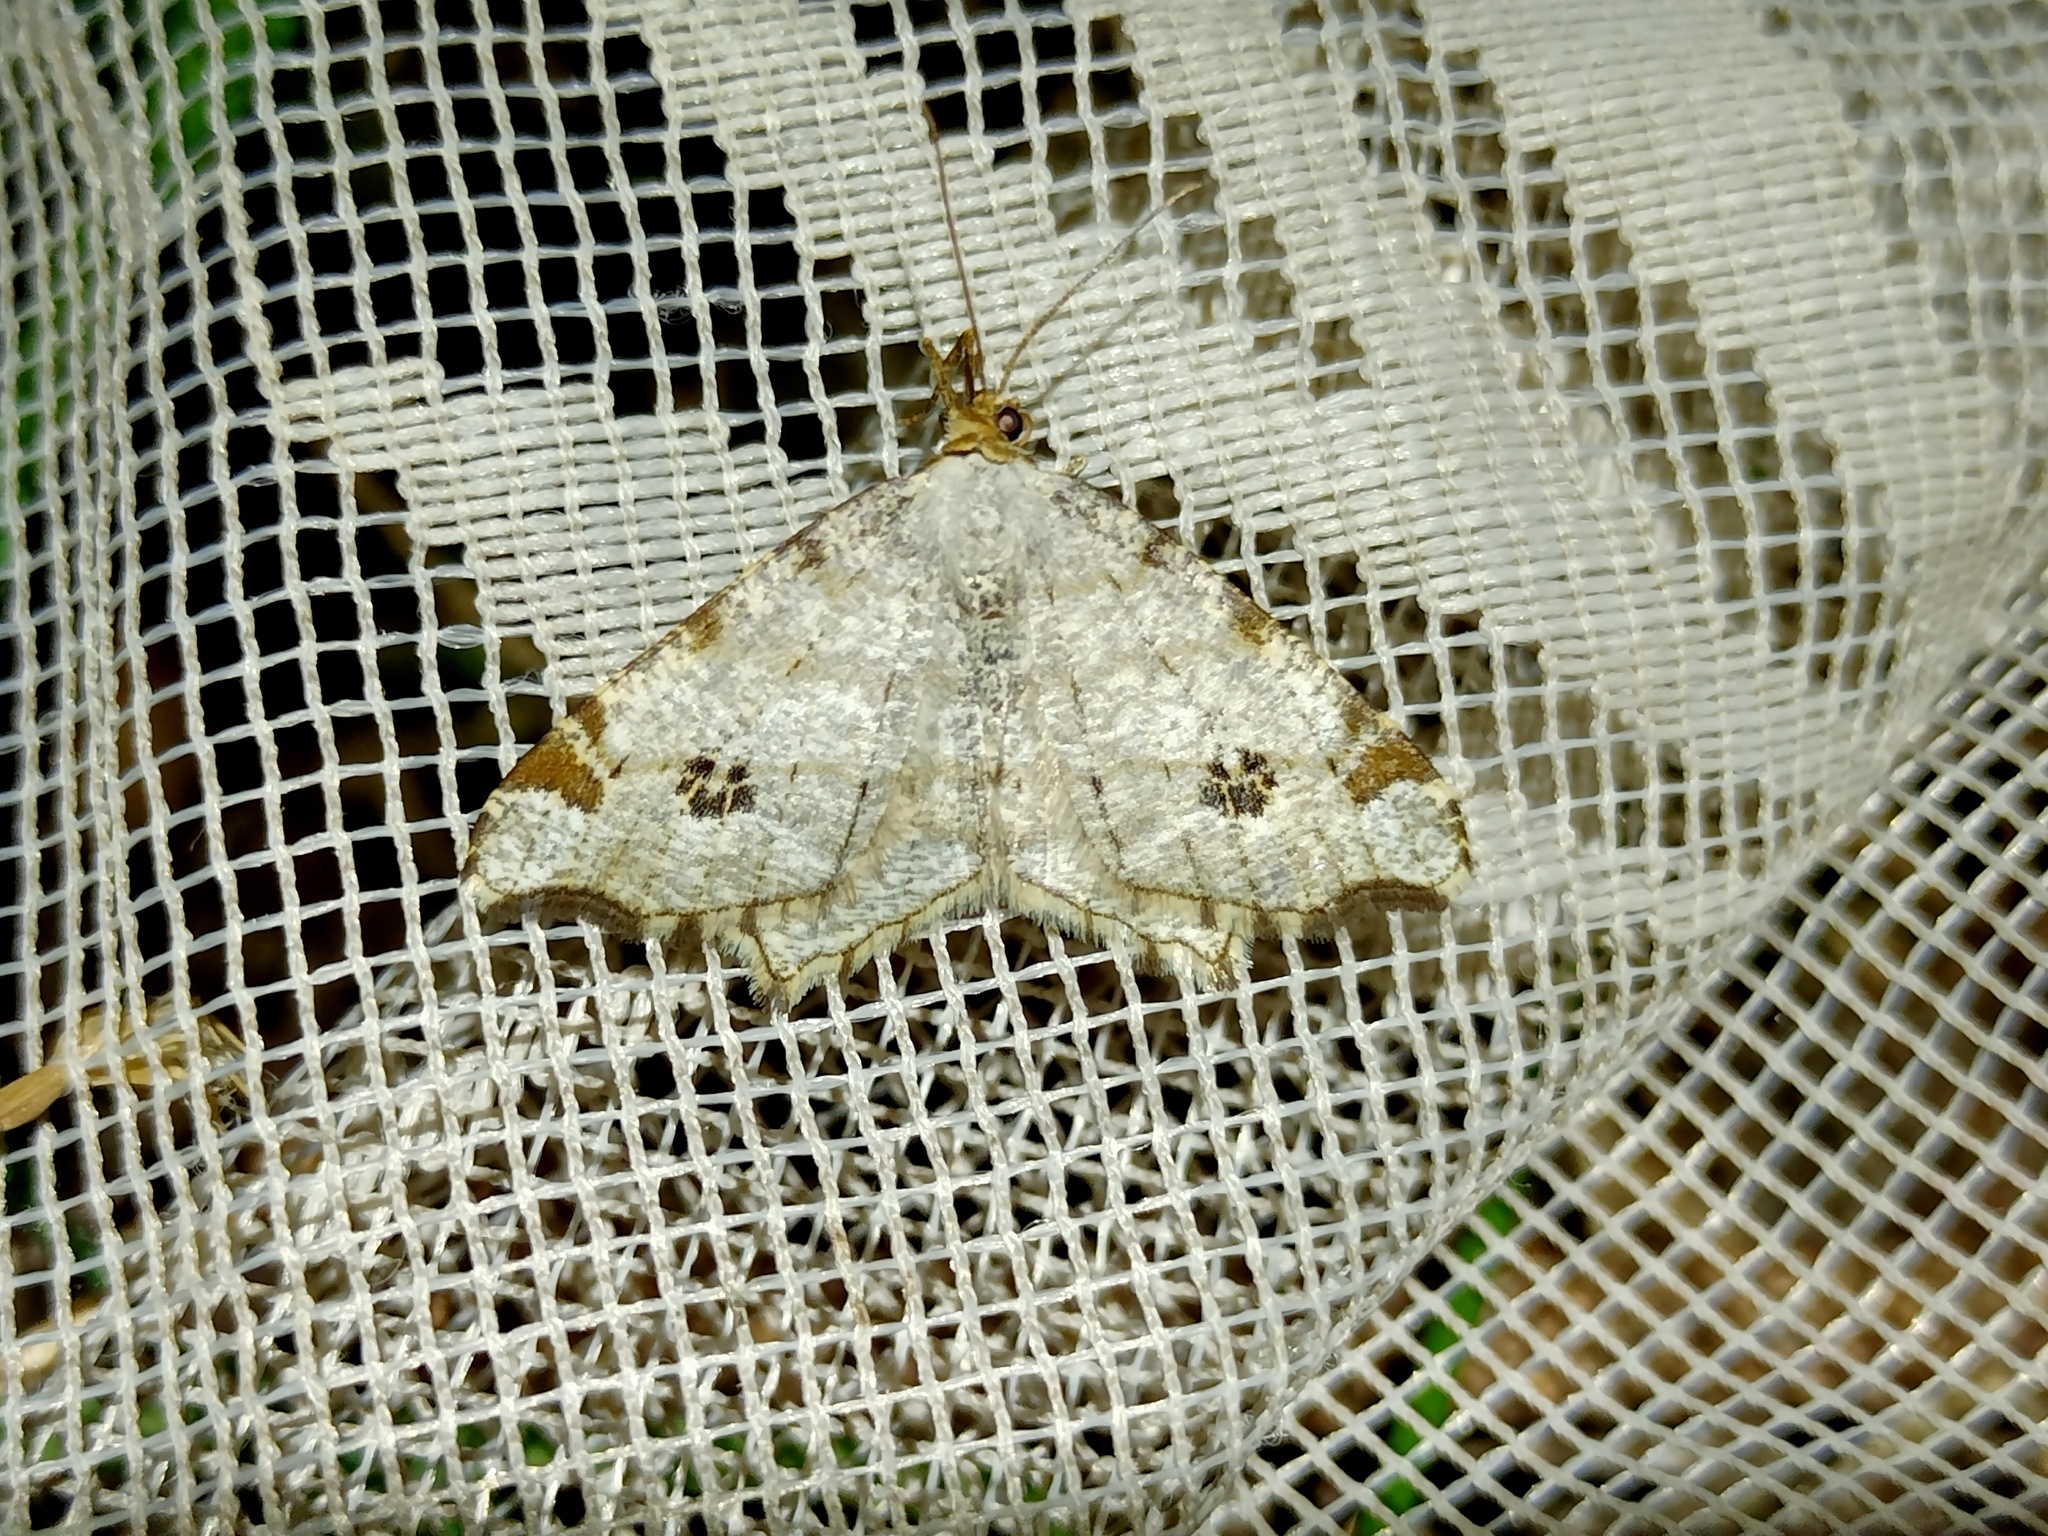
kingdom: Animalia
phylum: Arthropoda
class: Insecta
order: Lepidoptera
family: Geometridae
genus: Macaria
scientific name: Macaria notata
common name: Peacock moth
